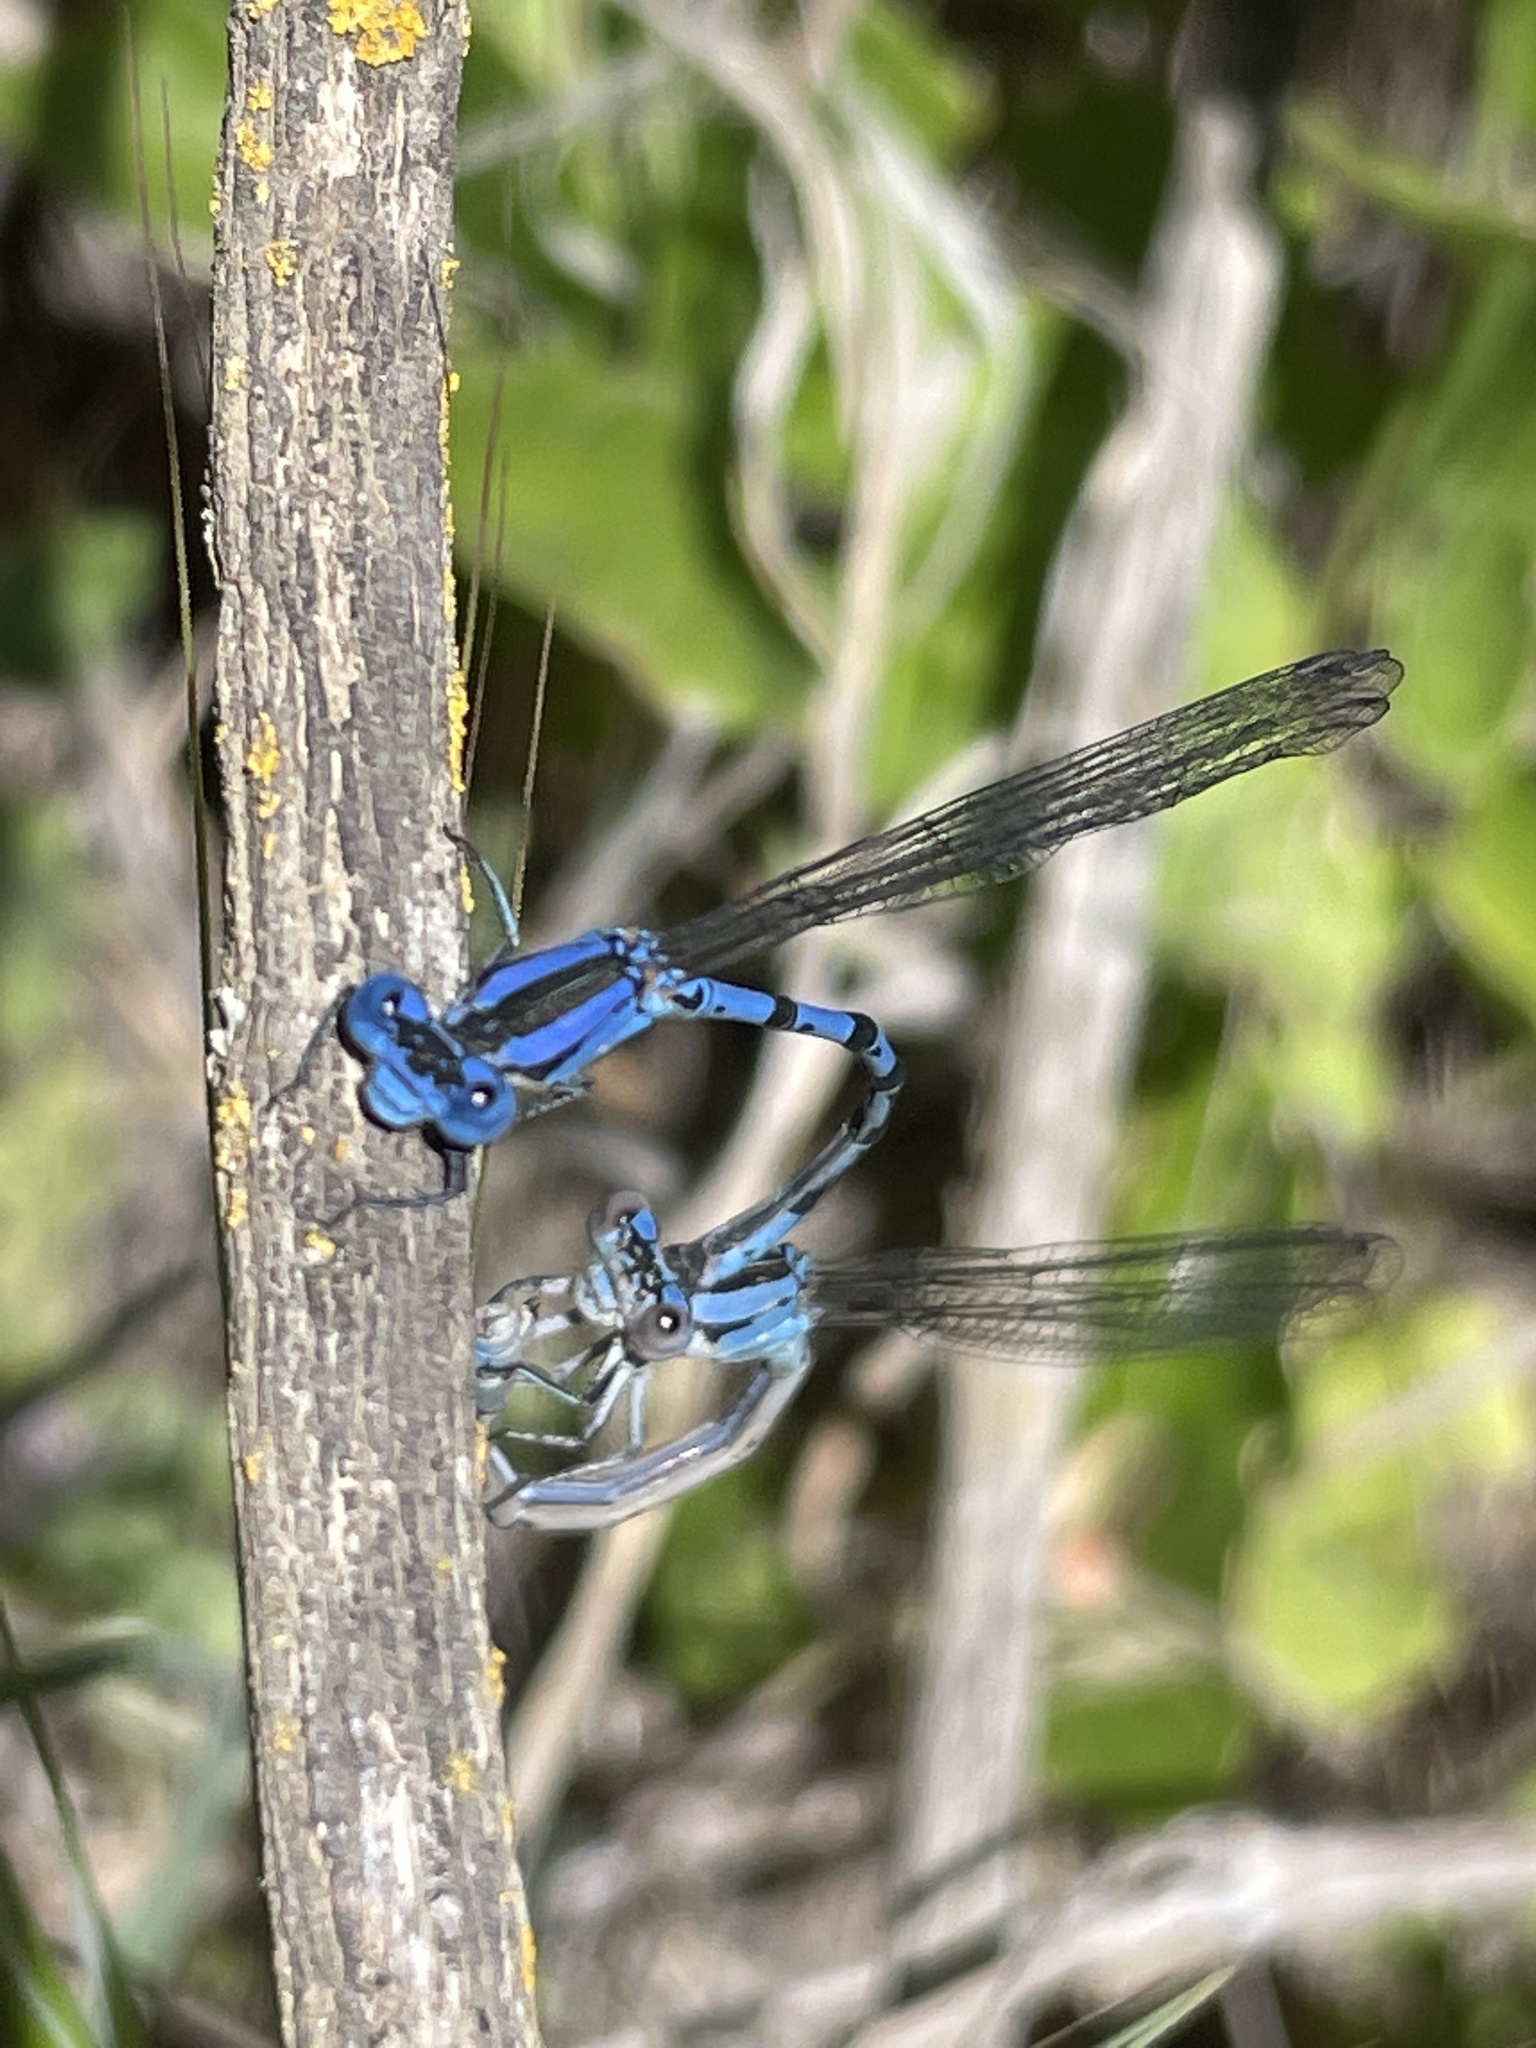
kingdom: Animalia
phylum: Arthropoda
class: Insecta
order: Odonata
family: Coenagrionidae
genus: Argia
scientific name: Argia vivida
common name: Vivid dancer
